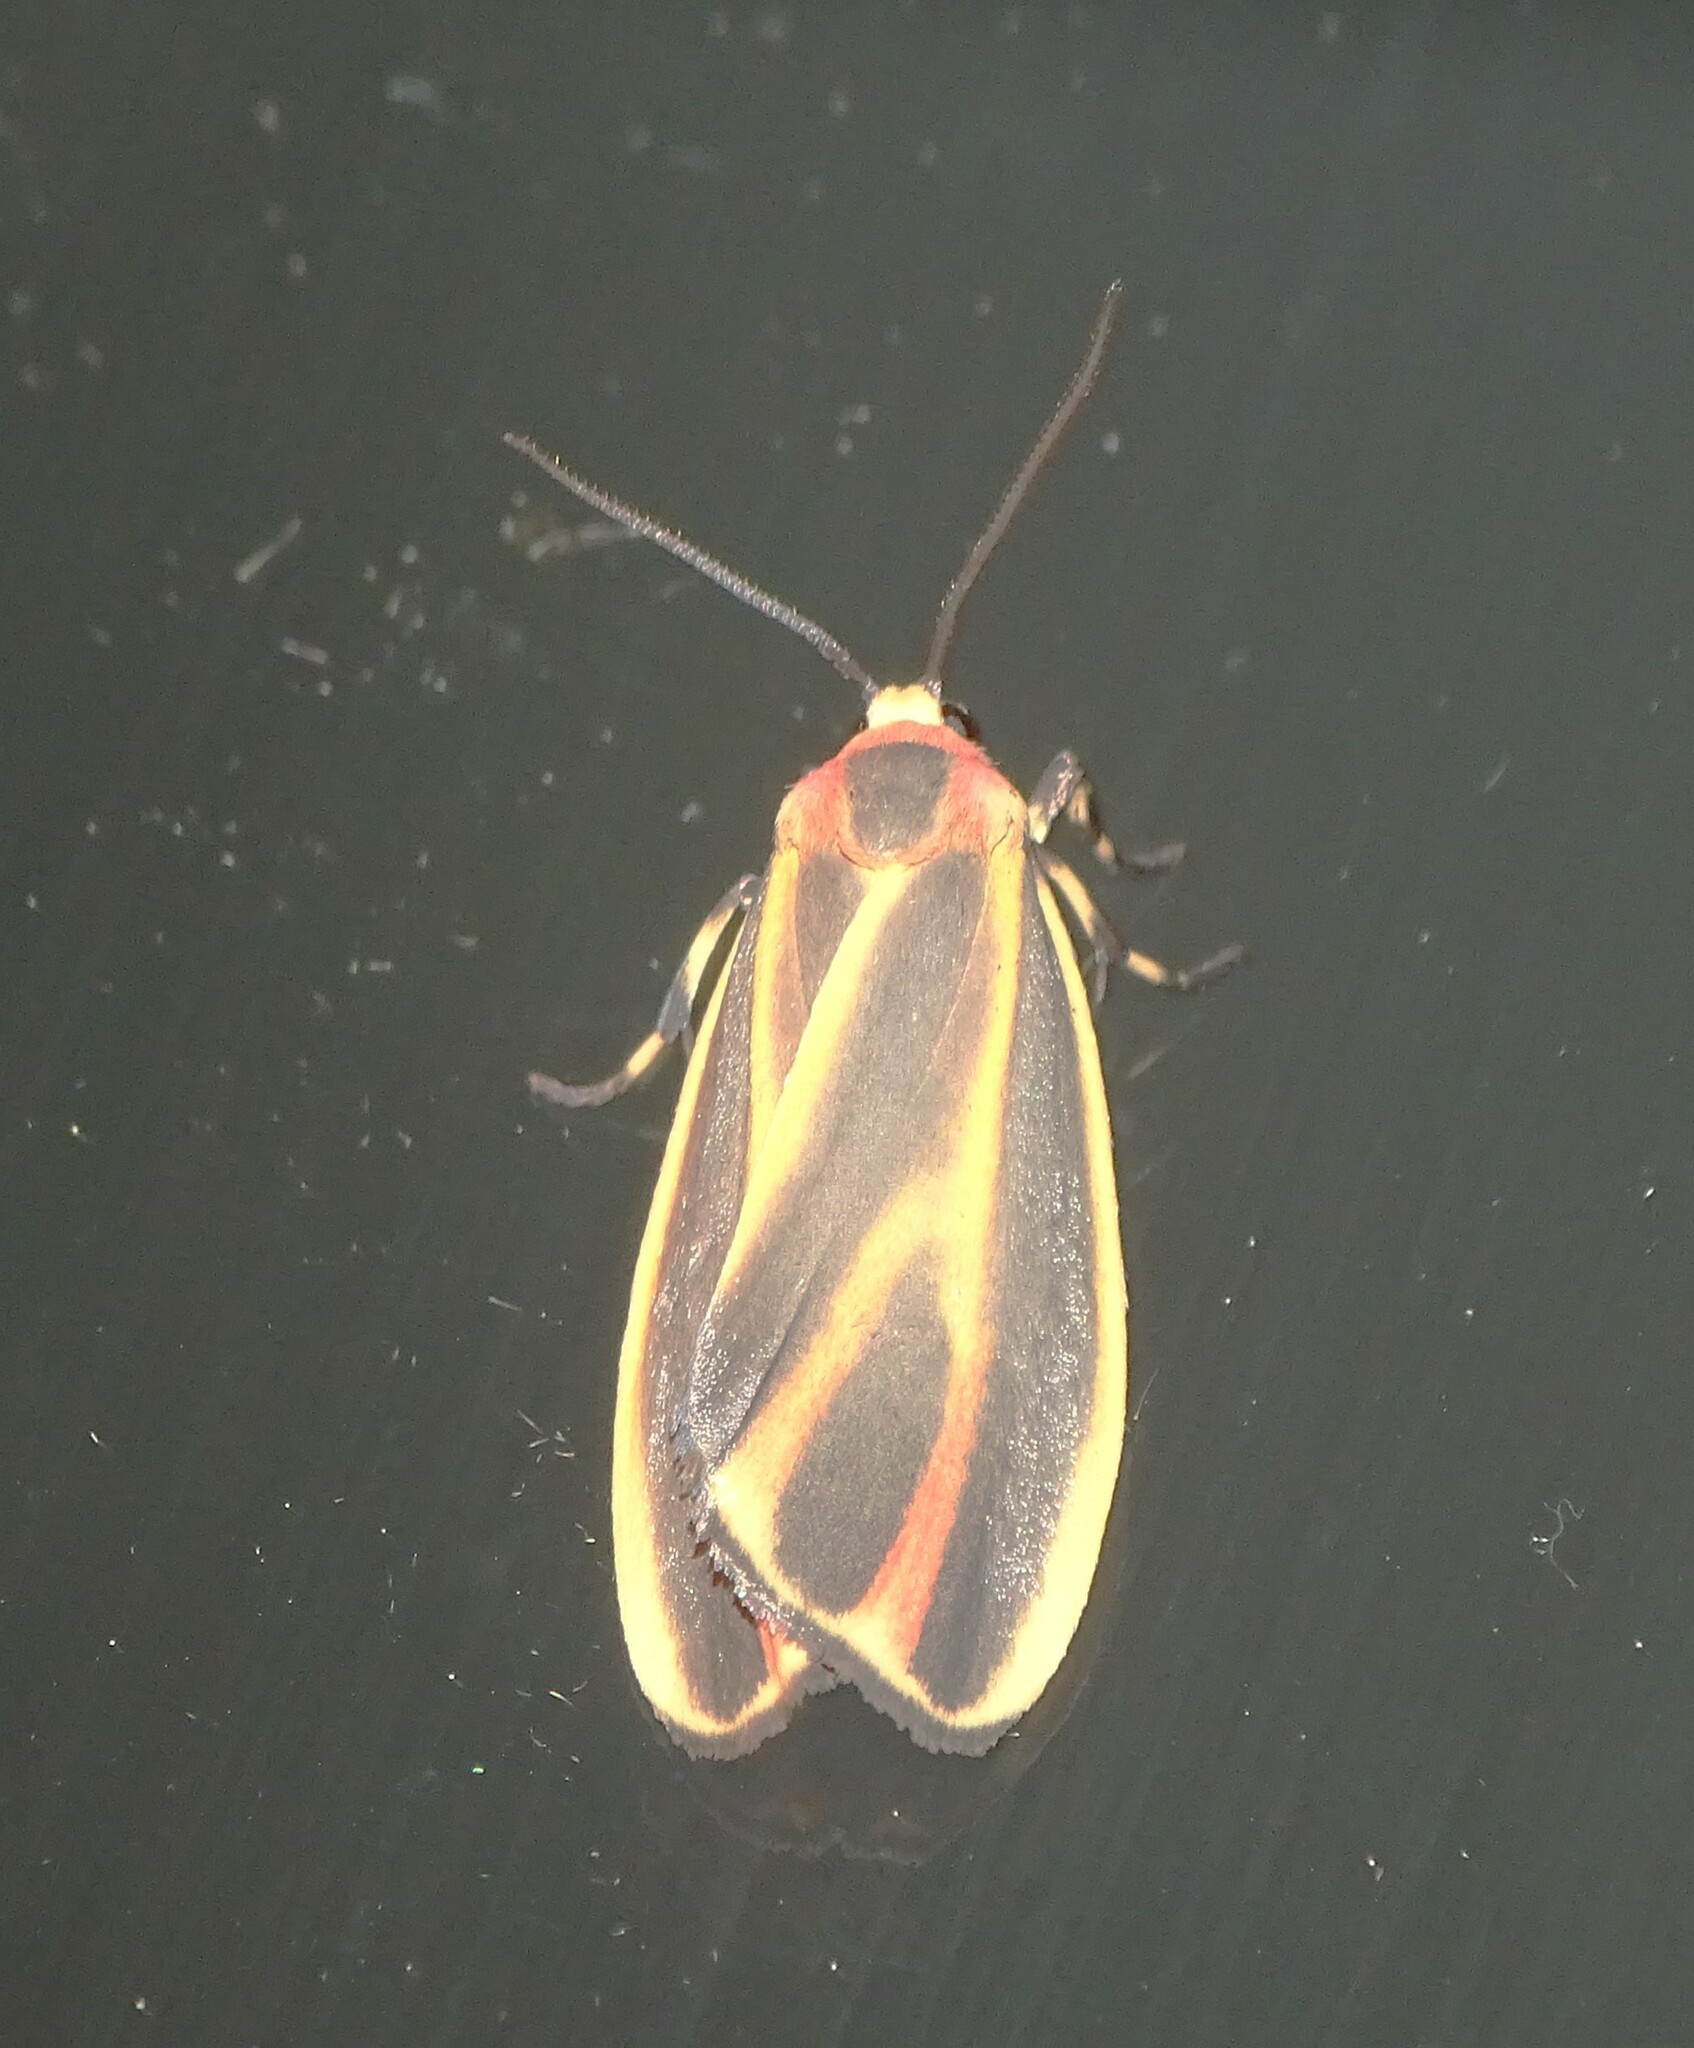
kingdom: Animalia
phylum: Arthropoda
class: Insecta
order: Lepidoptera
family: Erebidae
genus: Hypoprepia
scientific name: Hypoprepia fucosa
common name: Painted lichen moth
